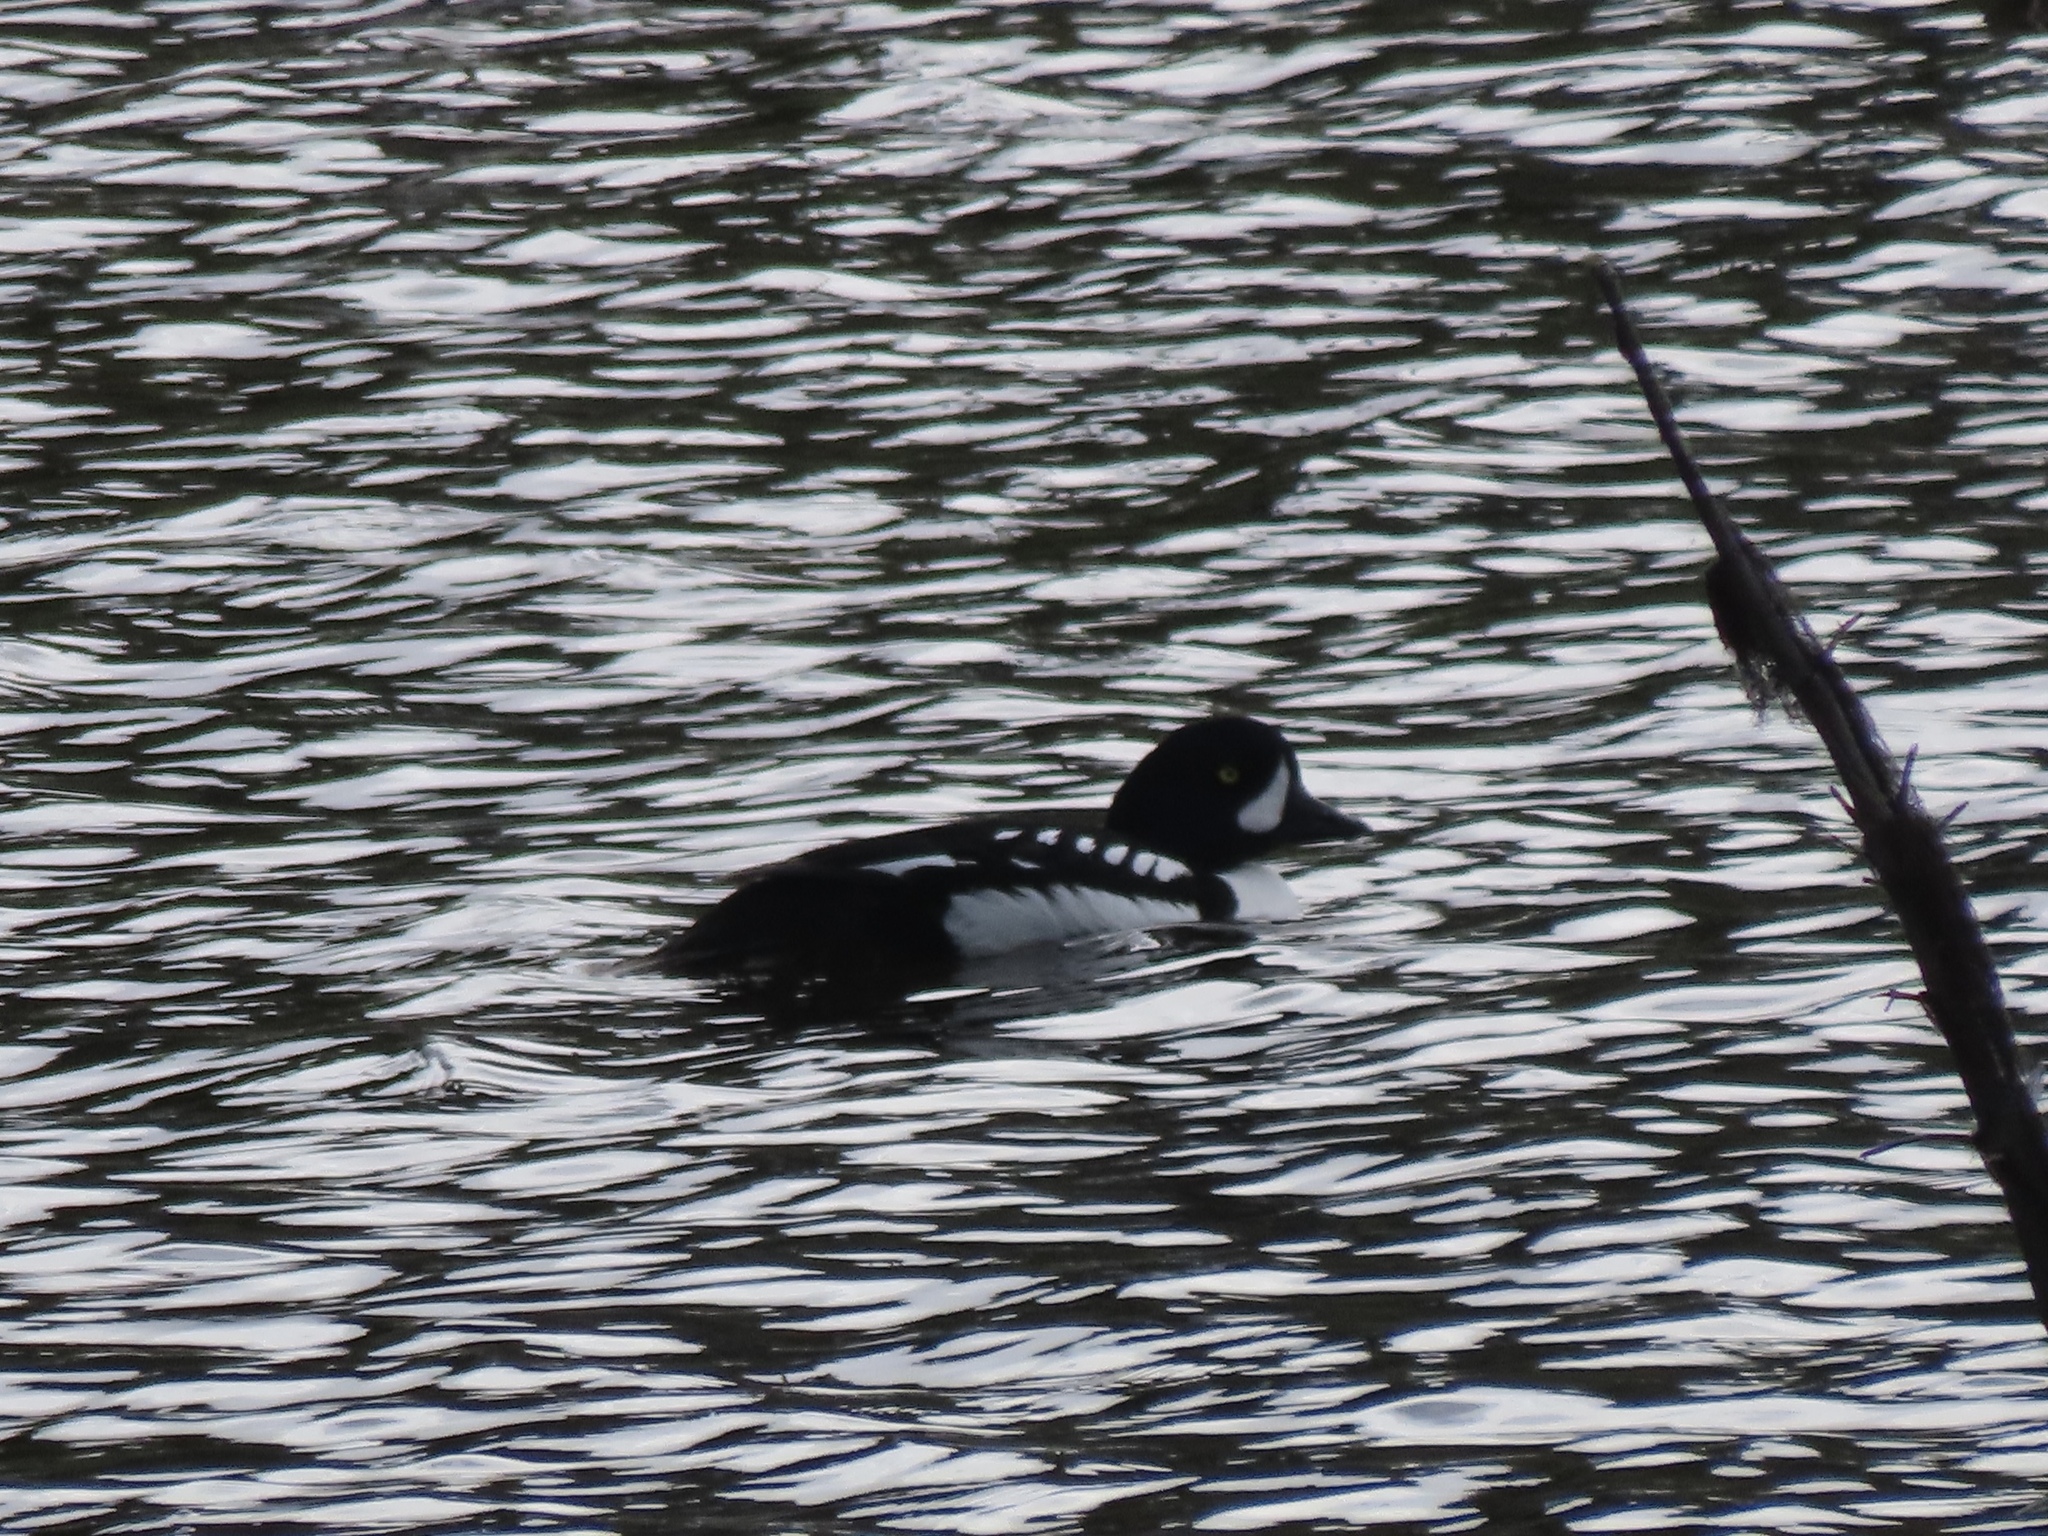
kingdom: Animalia
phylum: Chordata
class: Aves
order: Anseriformes
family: Anatidae
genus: Bucephala
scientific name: Bucephala islandica
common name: Barrow's goldeneye
